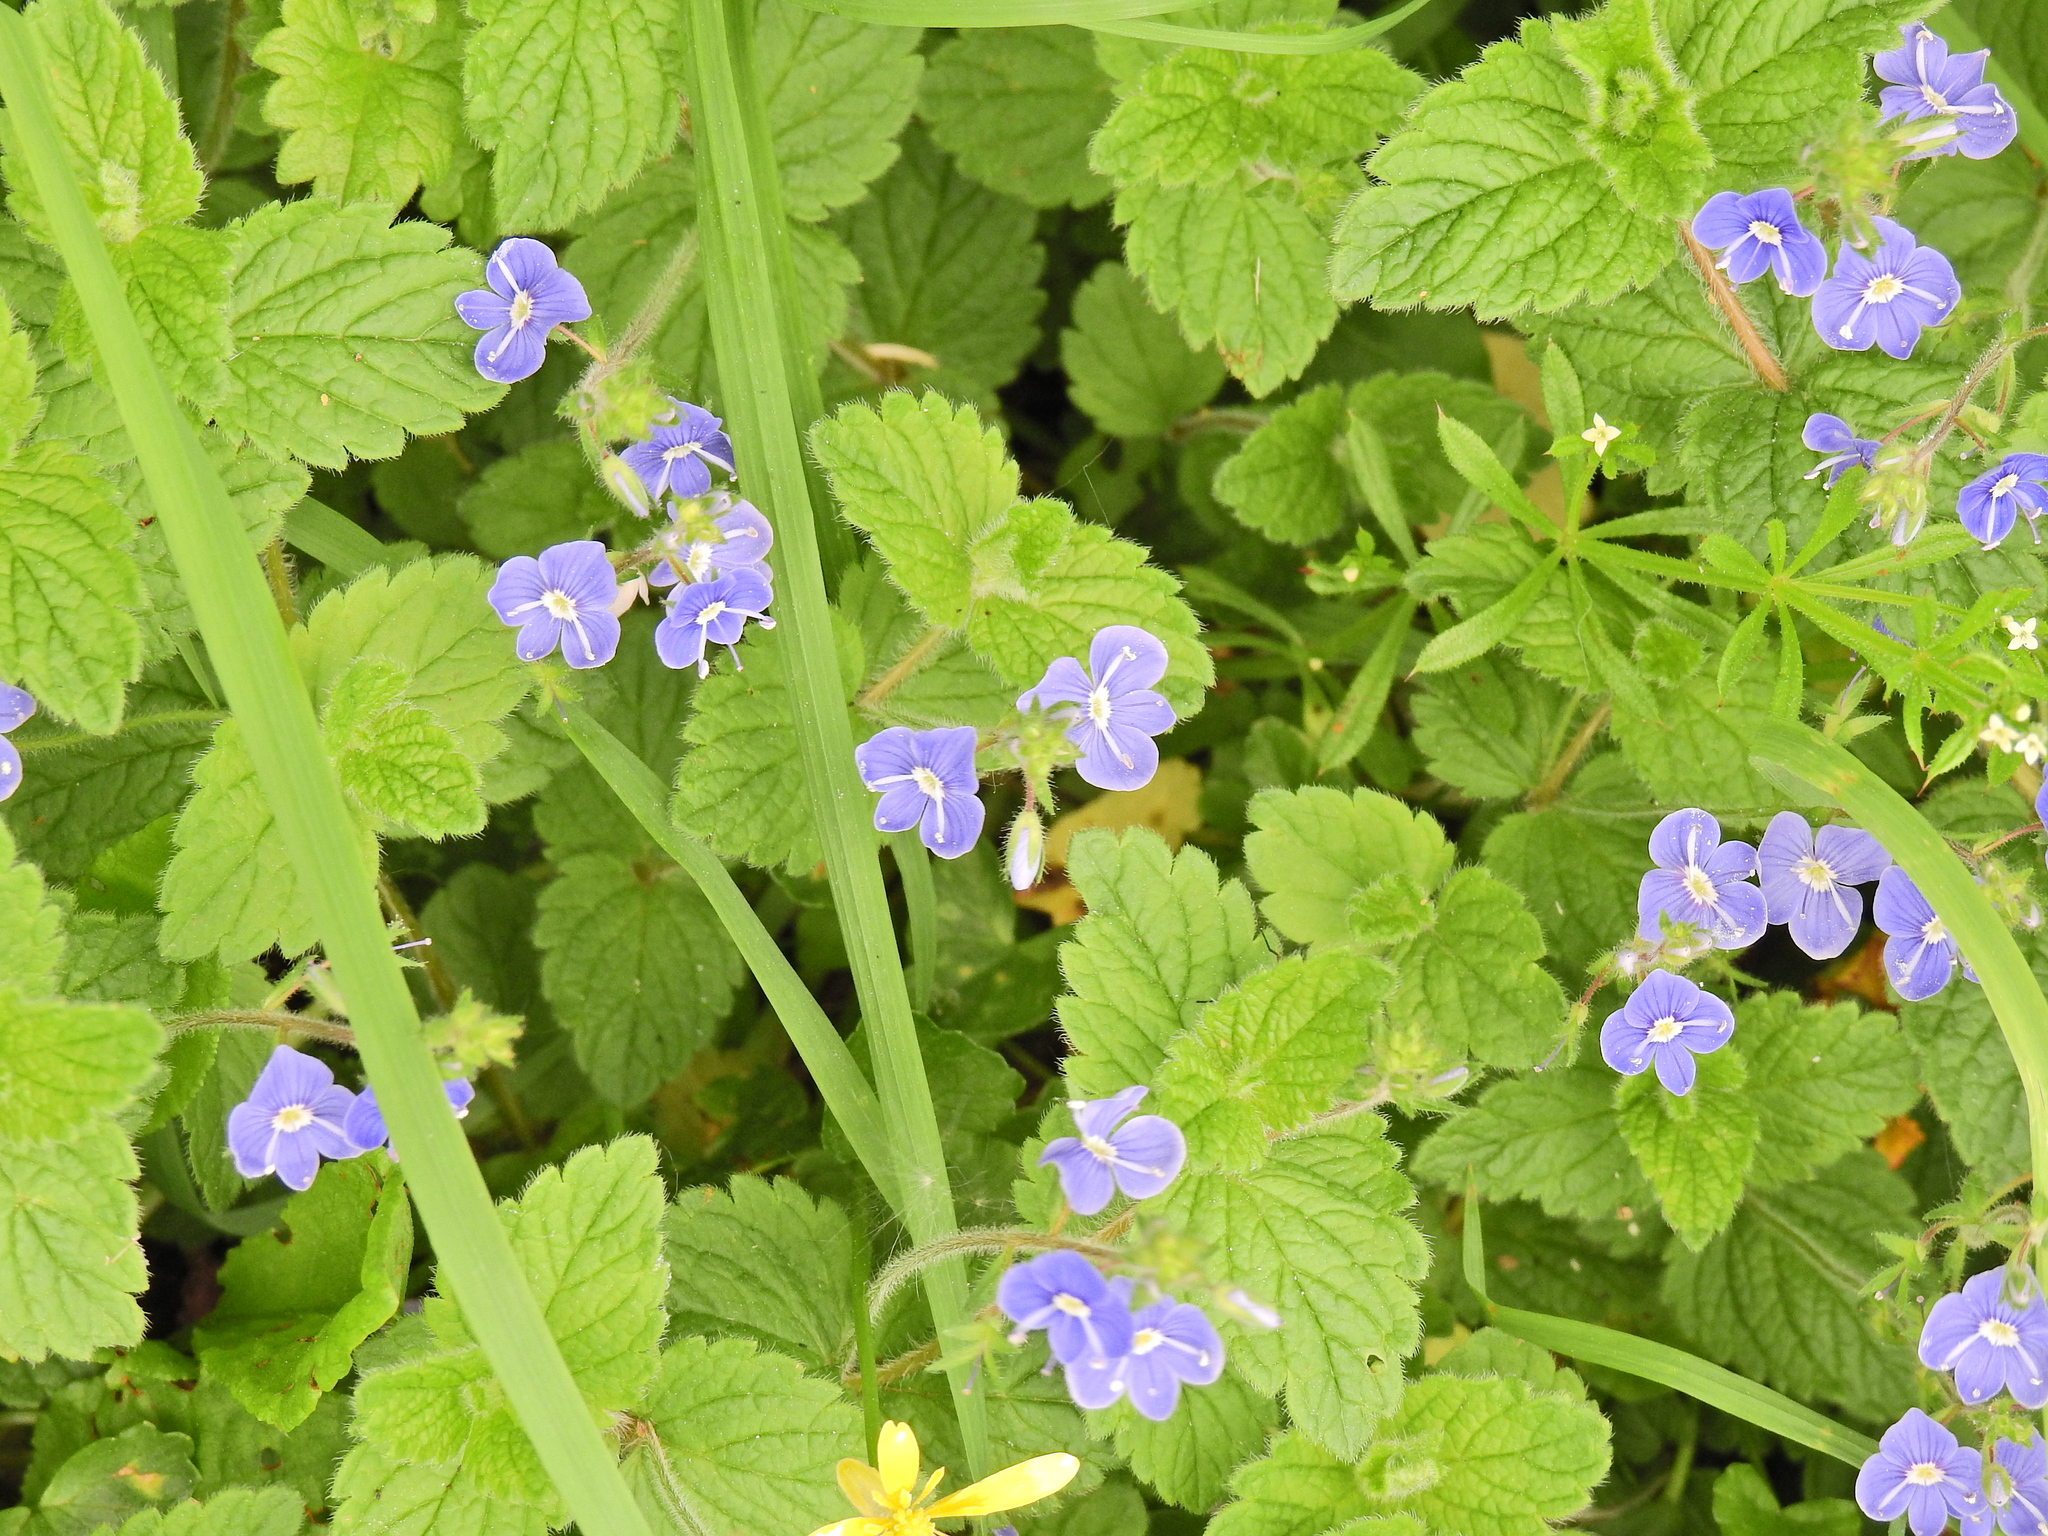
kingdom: Plantae
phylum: Tracheophyta
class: Magnoliopsida
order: Lamiales
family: Plantaginaceae
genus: Veronica
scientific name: Veronica chamaedrys
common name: Germander speedwell
